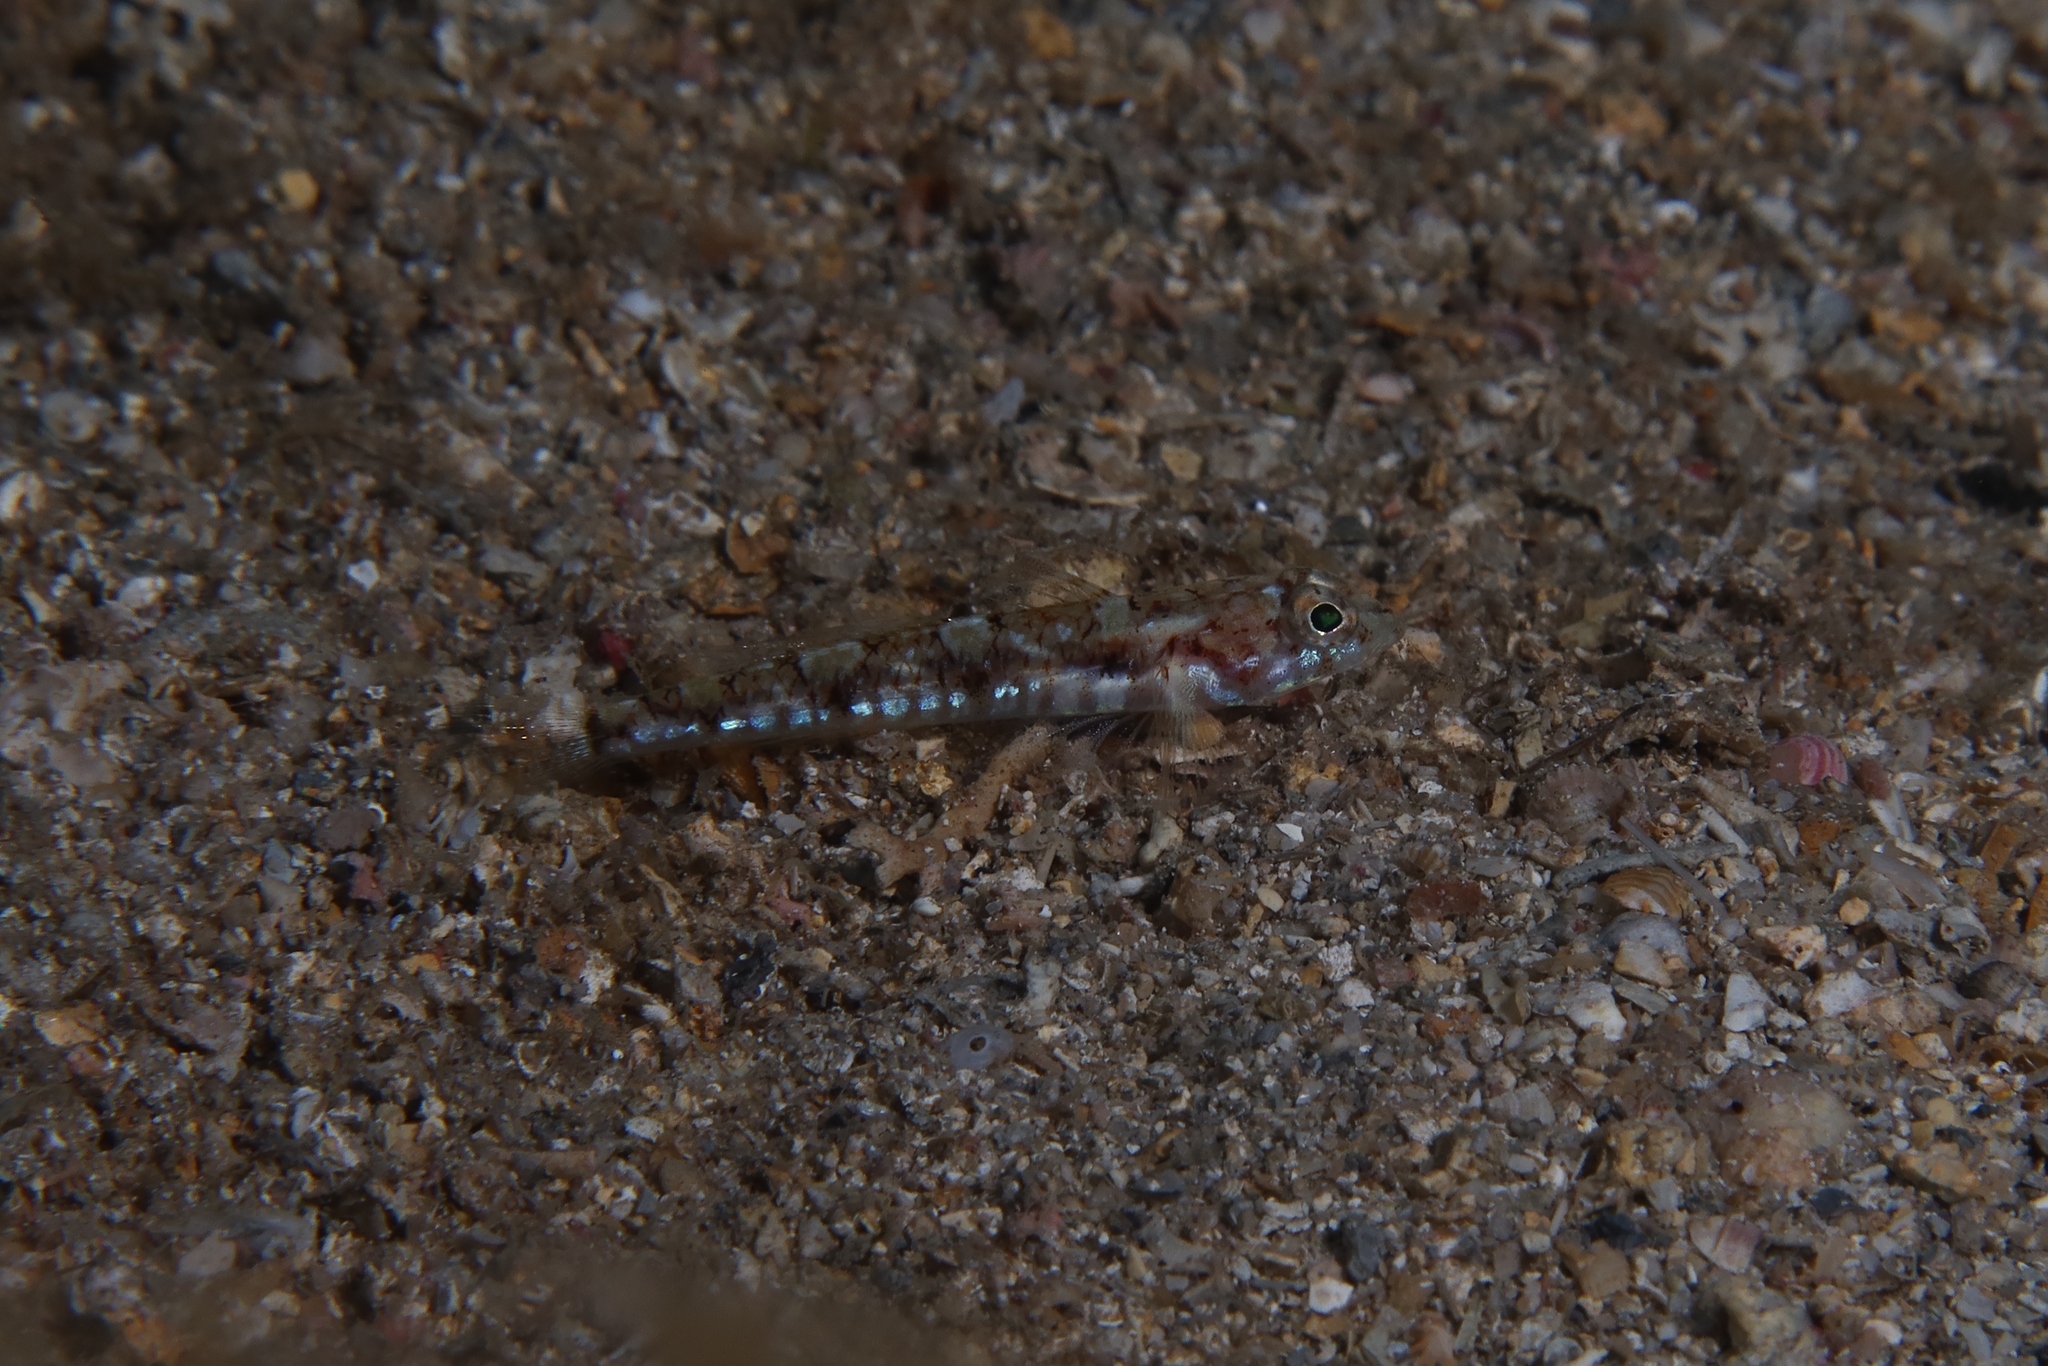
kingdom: Animalia
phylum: Chordata
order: Perciformes
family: Gobiidae
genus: Buenia
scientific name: Buenia affinis
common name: De buen's goby
